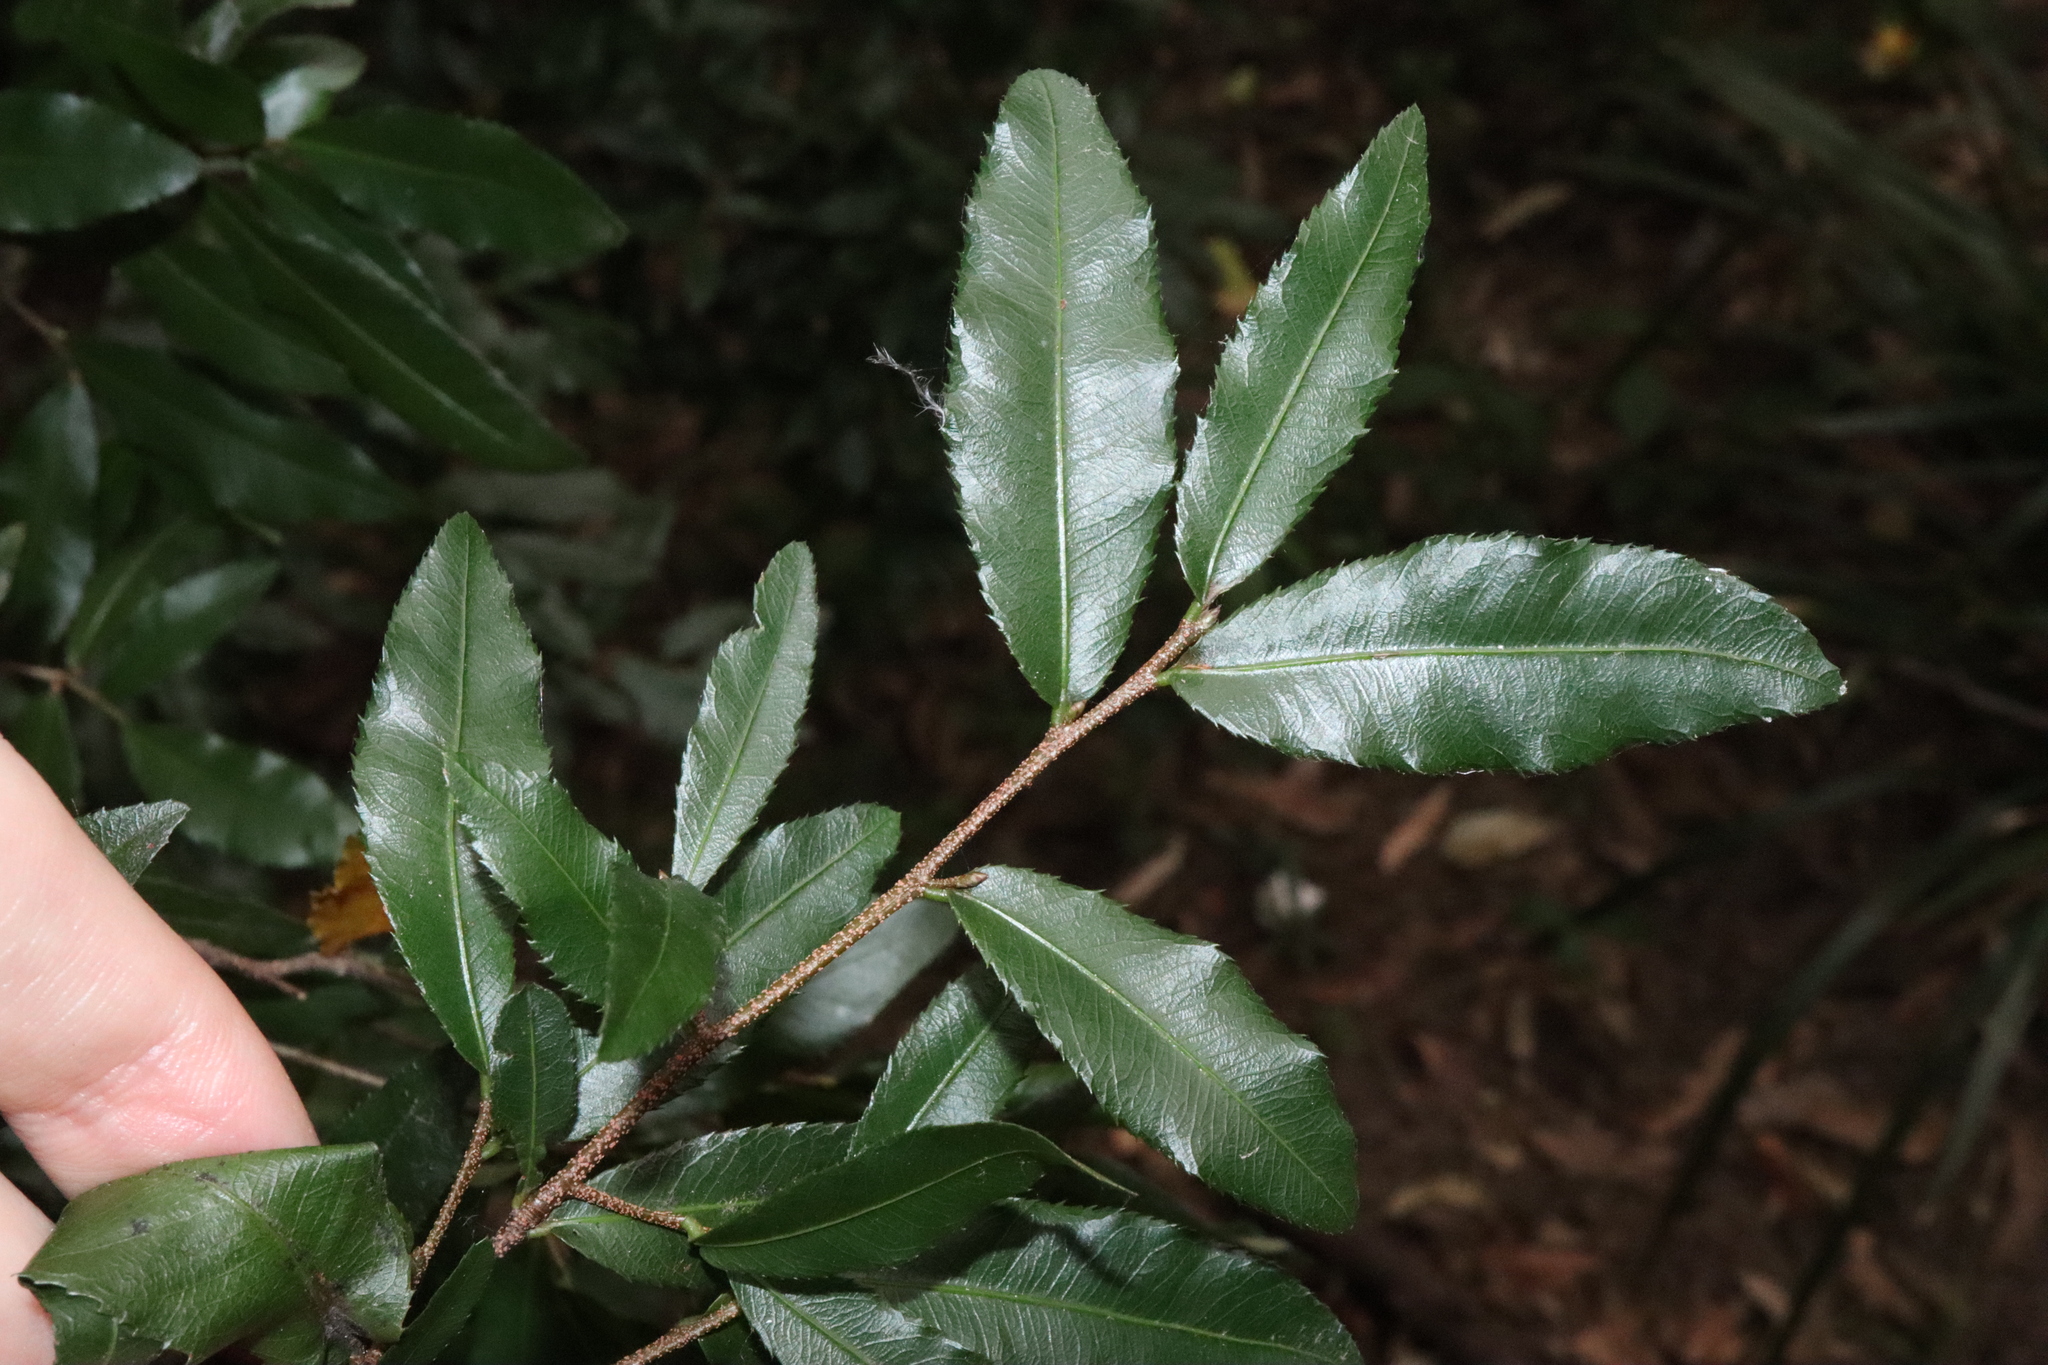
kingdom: Plantae
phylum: Tracheophyta
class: Magnoliopsida
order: Malpighiales
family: Ochnaceae
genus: Ochna
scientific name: Ochna serrulata
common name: Mickey mouse plant
